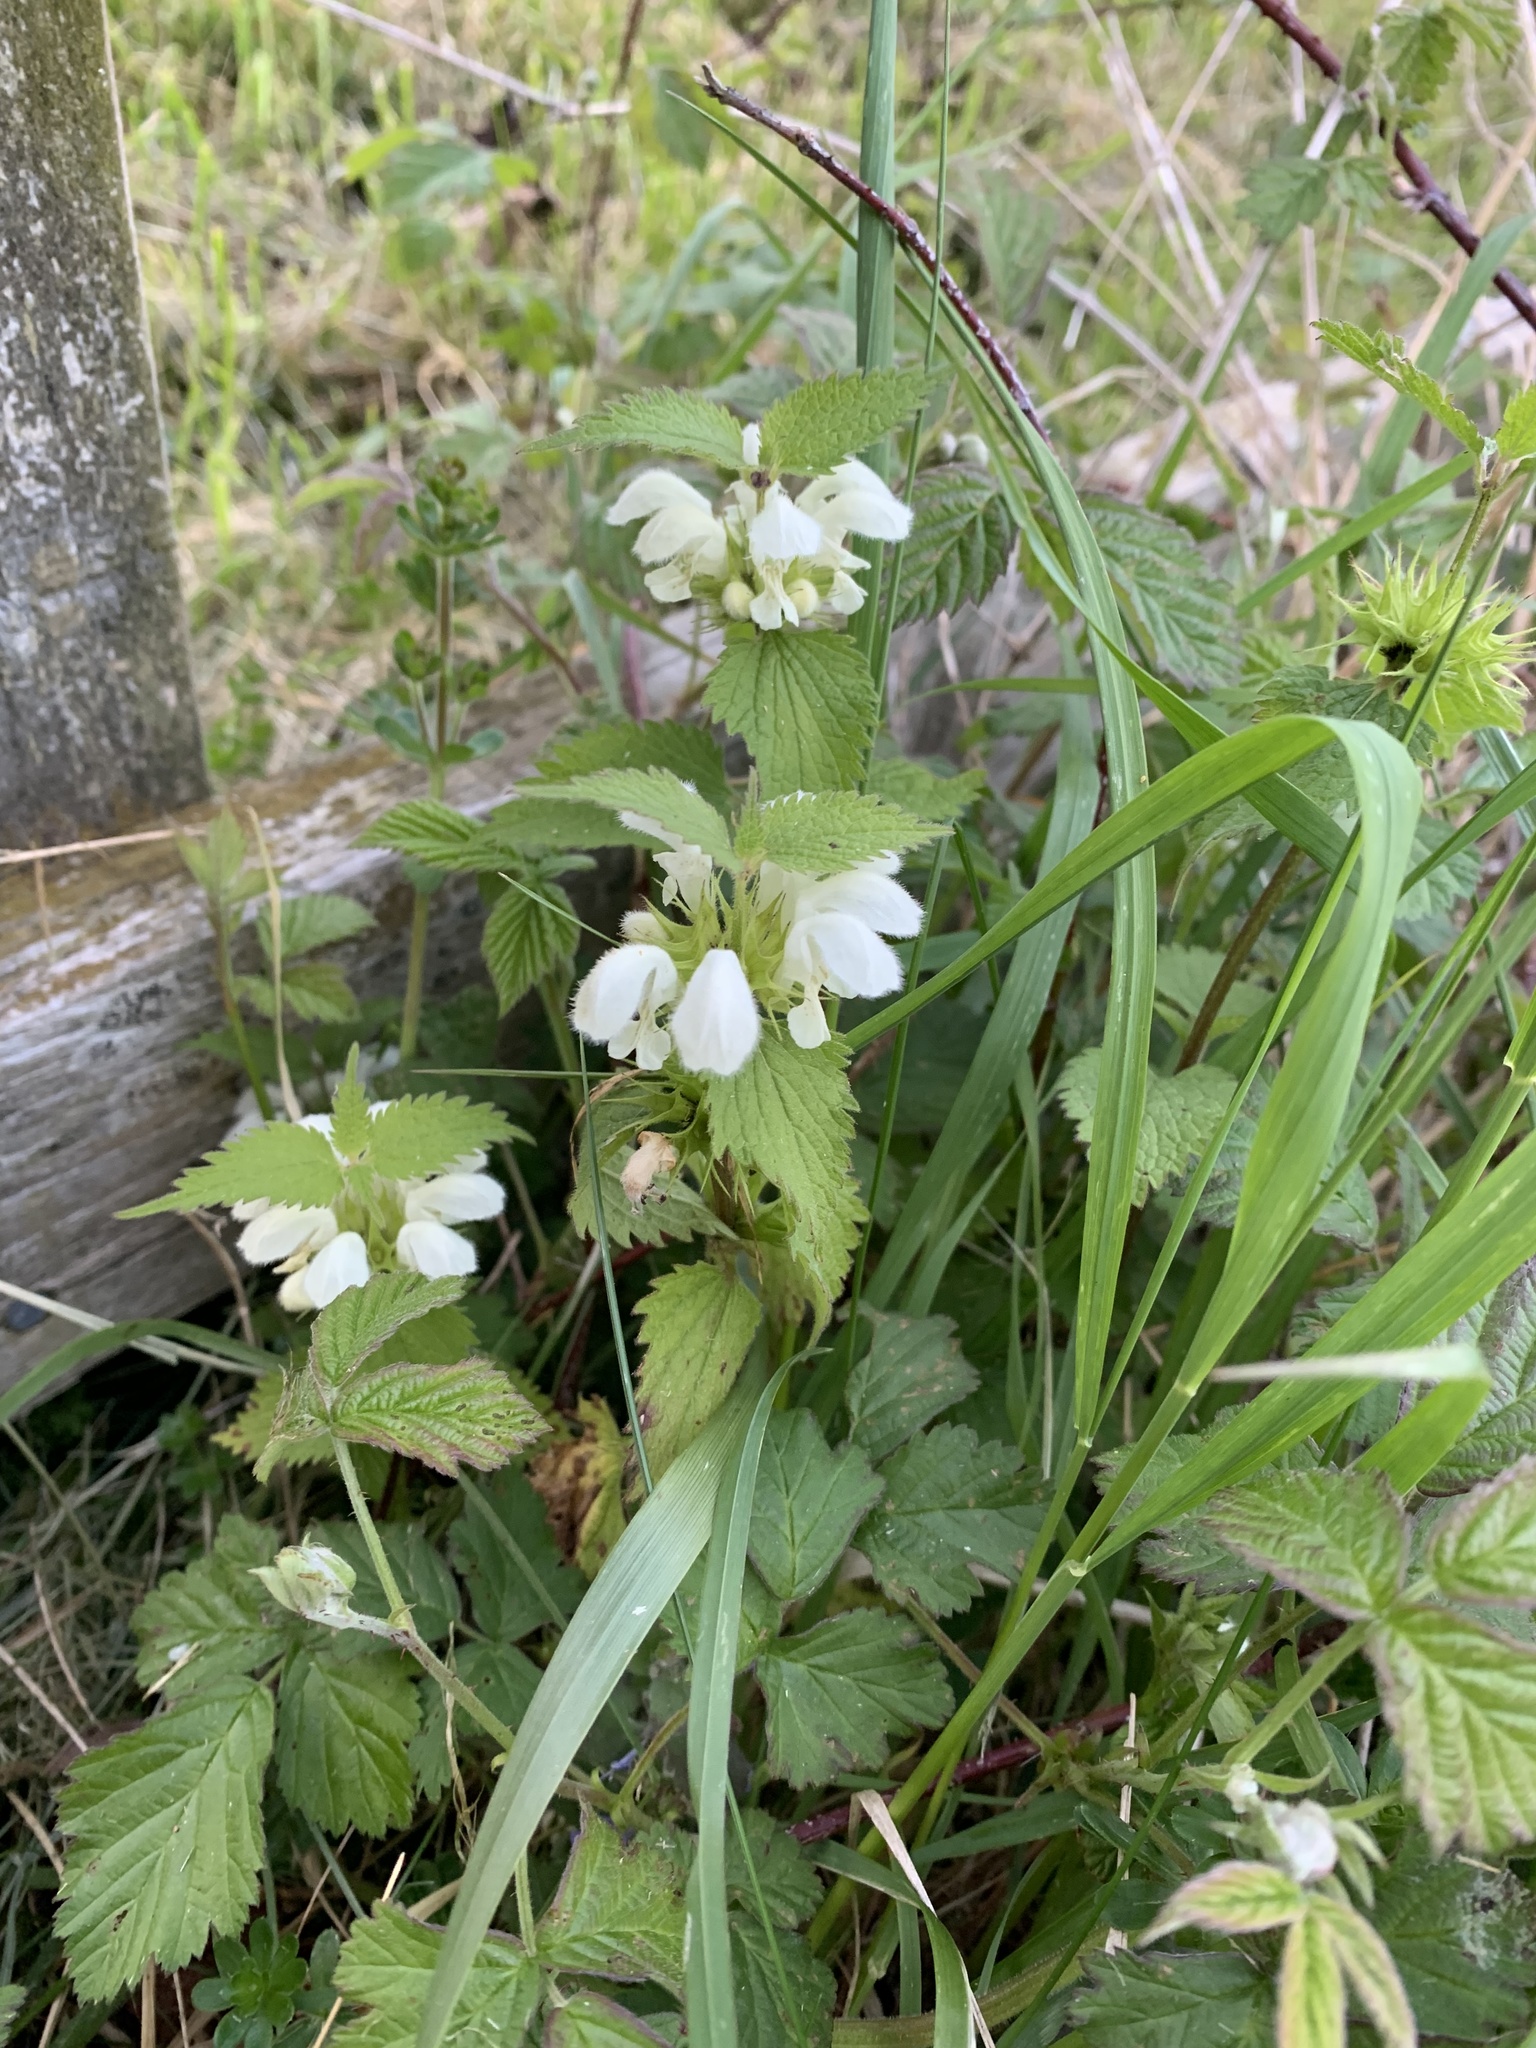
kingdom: Plantae
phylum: Tracheophyta
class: Magnoliopsida
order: Lamiales
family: Lamiaceae
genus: Lamium
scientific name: Lamium album
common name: White dead-nettle
